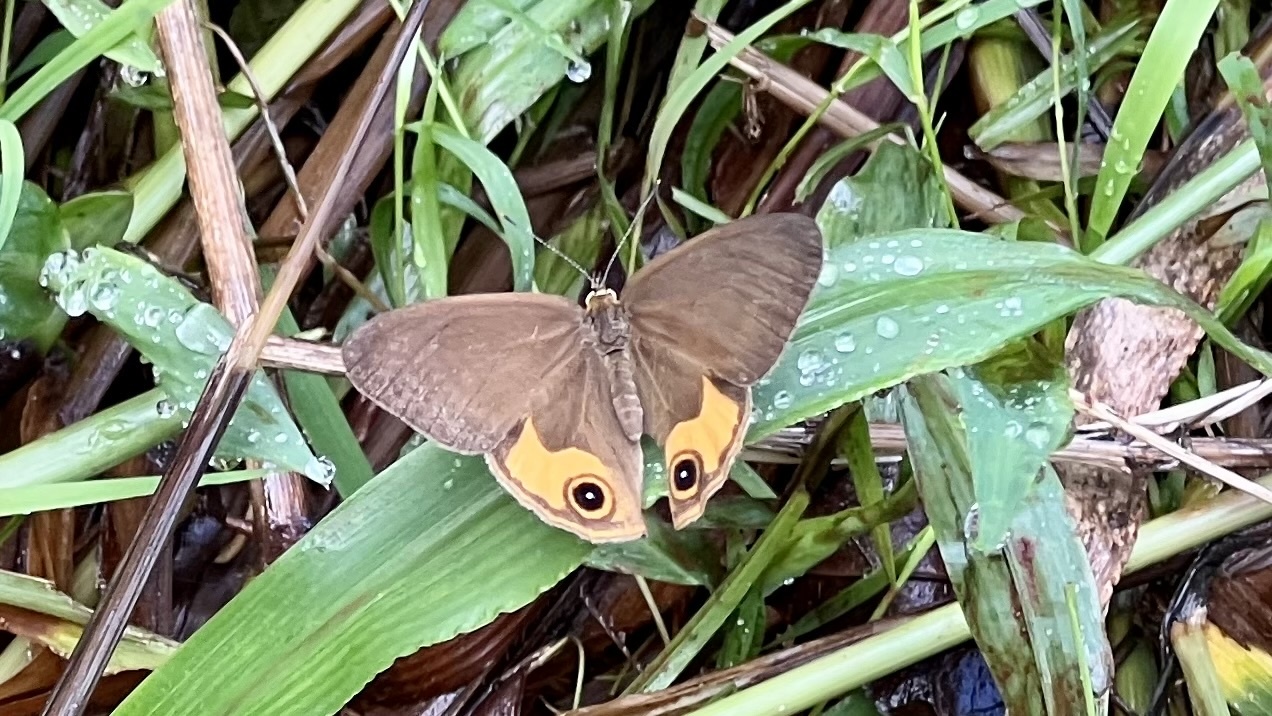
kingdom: Animalia
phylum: Arthropoda
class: Insecta
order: Lepidoptera
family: Nymphalidae
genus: Hypocysta
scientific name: Hypocysta metirius
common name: Brown ringlet
